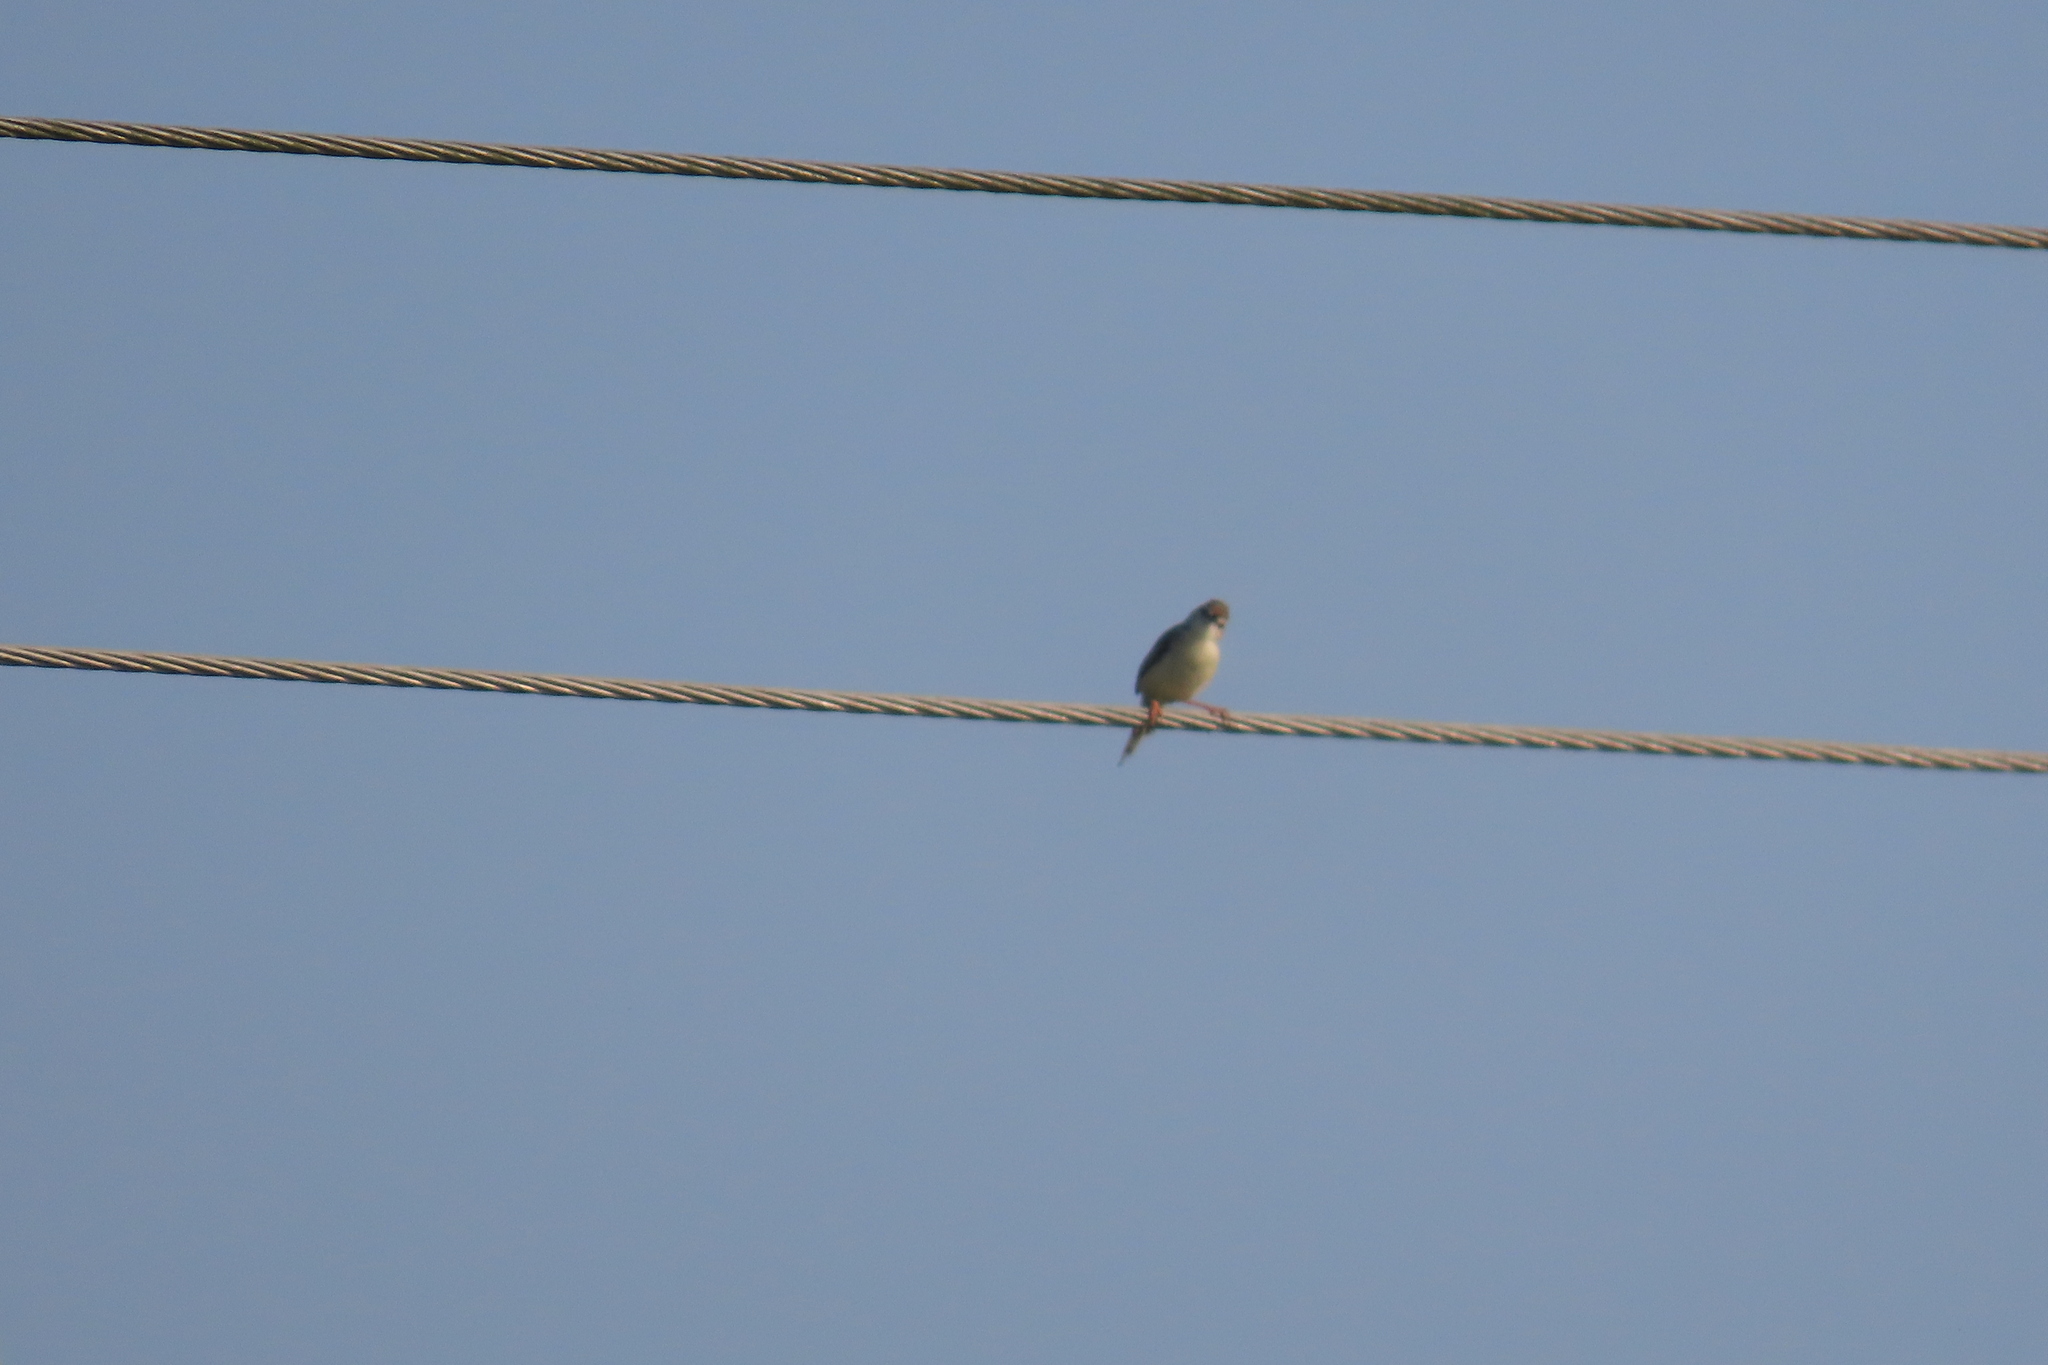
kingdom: Animalia
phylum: Chordata
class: Aves
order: Passeriformes
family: Cisticolidae
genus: Prinia
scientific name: Prinia inornata
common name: Plain prinia
